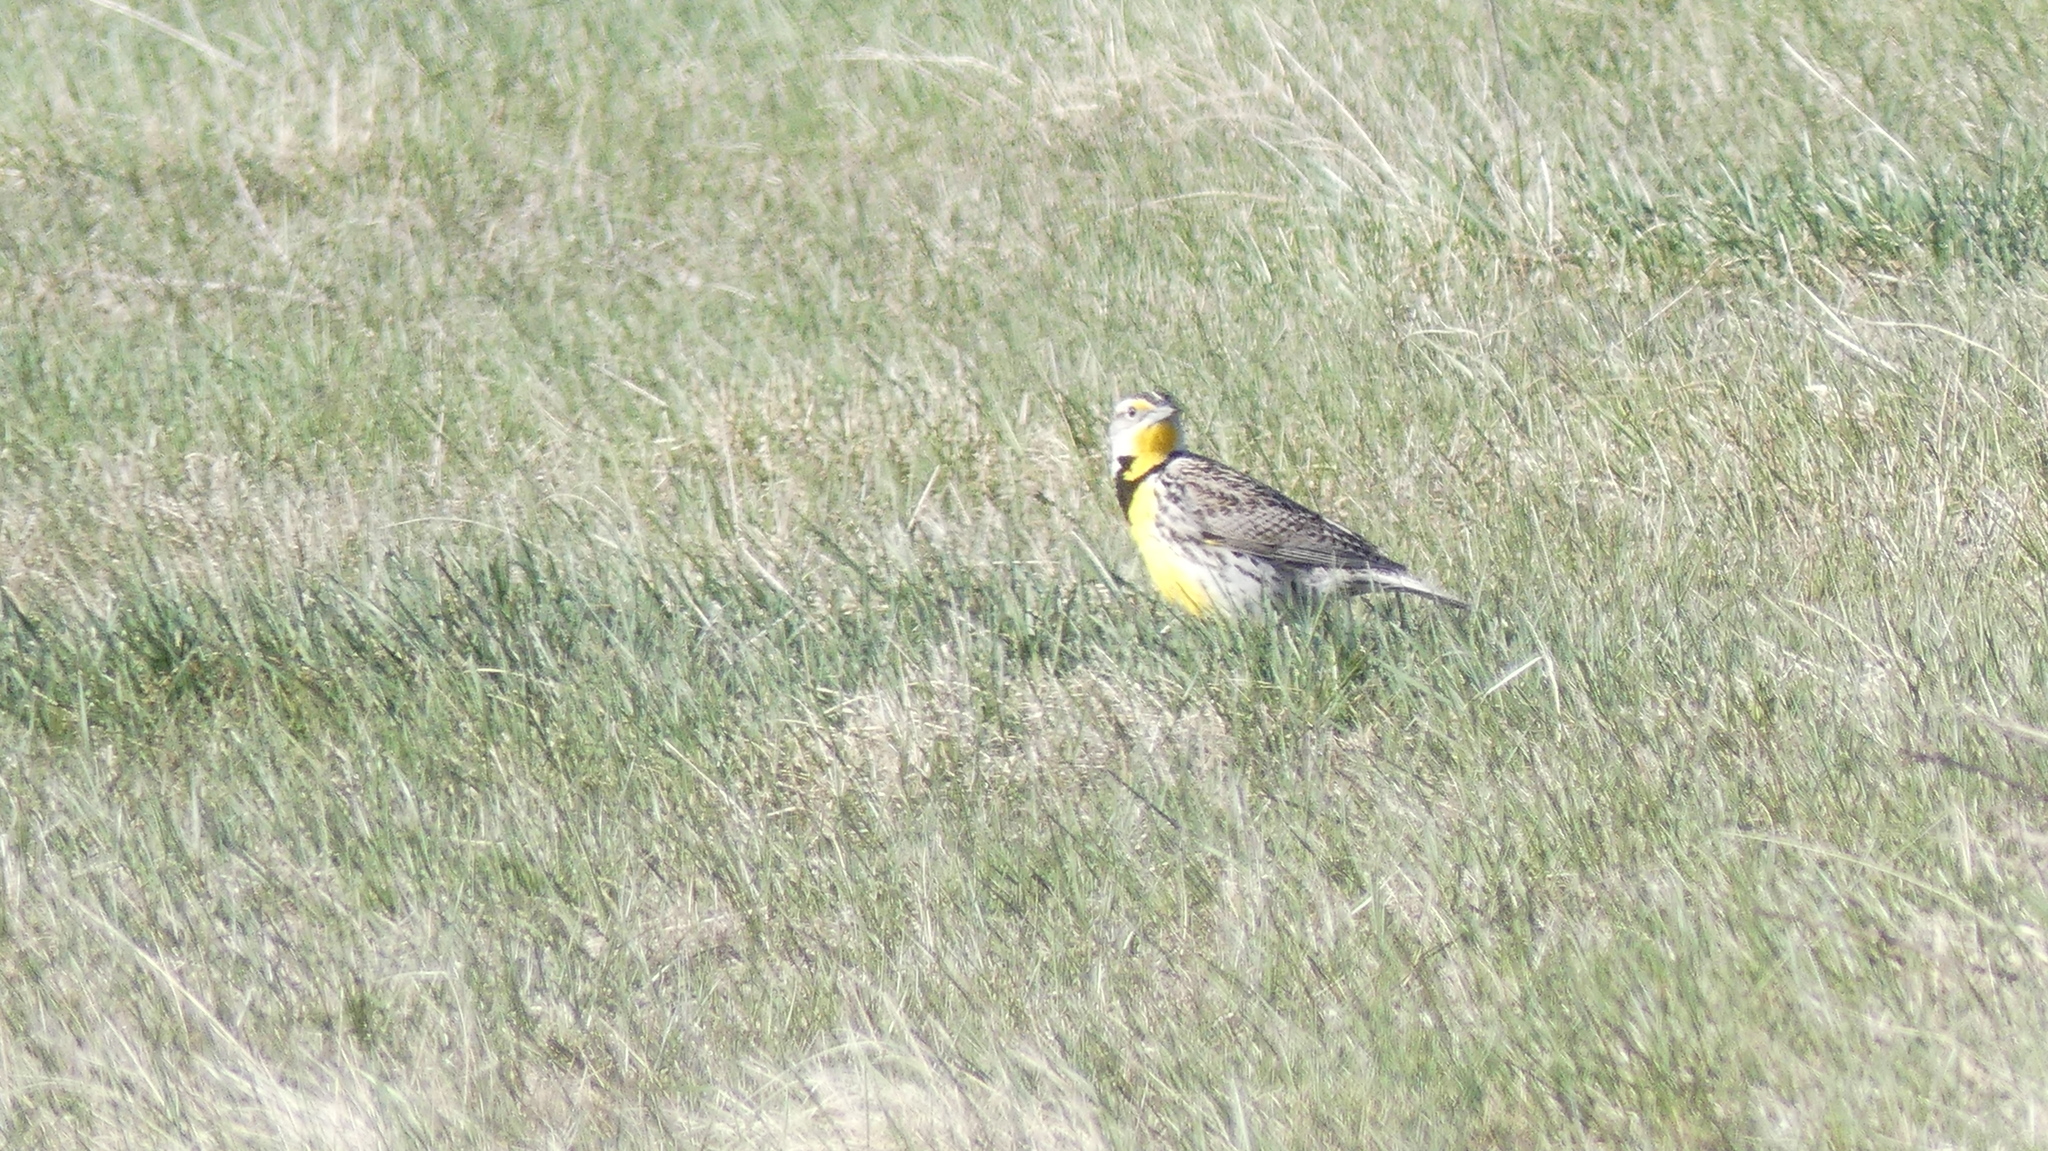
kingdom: Animalia
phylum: Chordata
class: Aves
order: Passeriformes
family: Icteridae
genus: Sturnella
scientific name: Sturnella neglecta
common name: Western meadowlark
